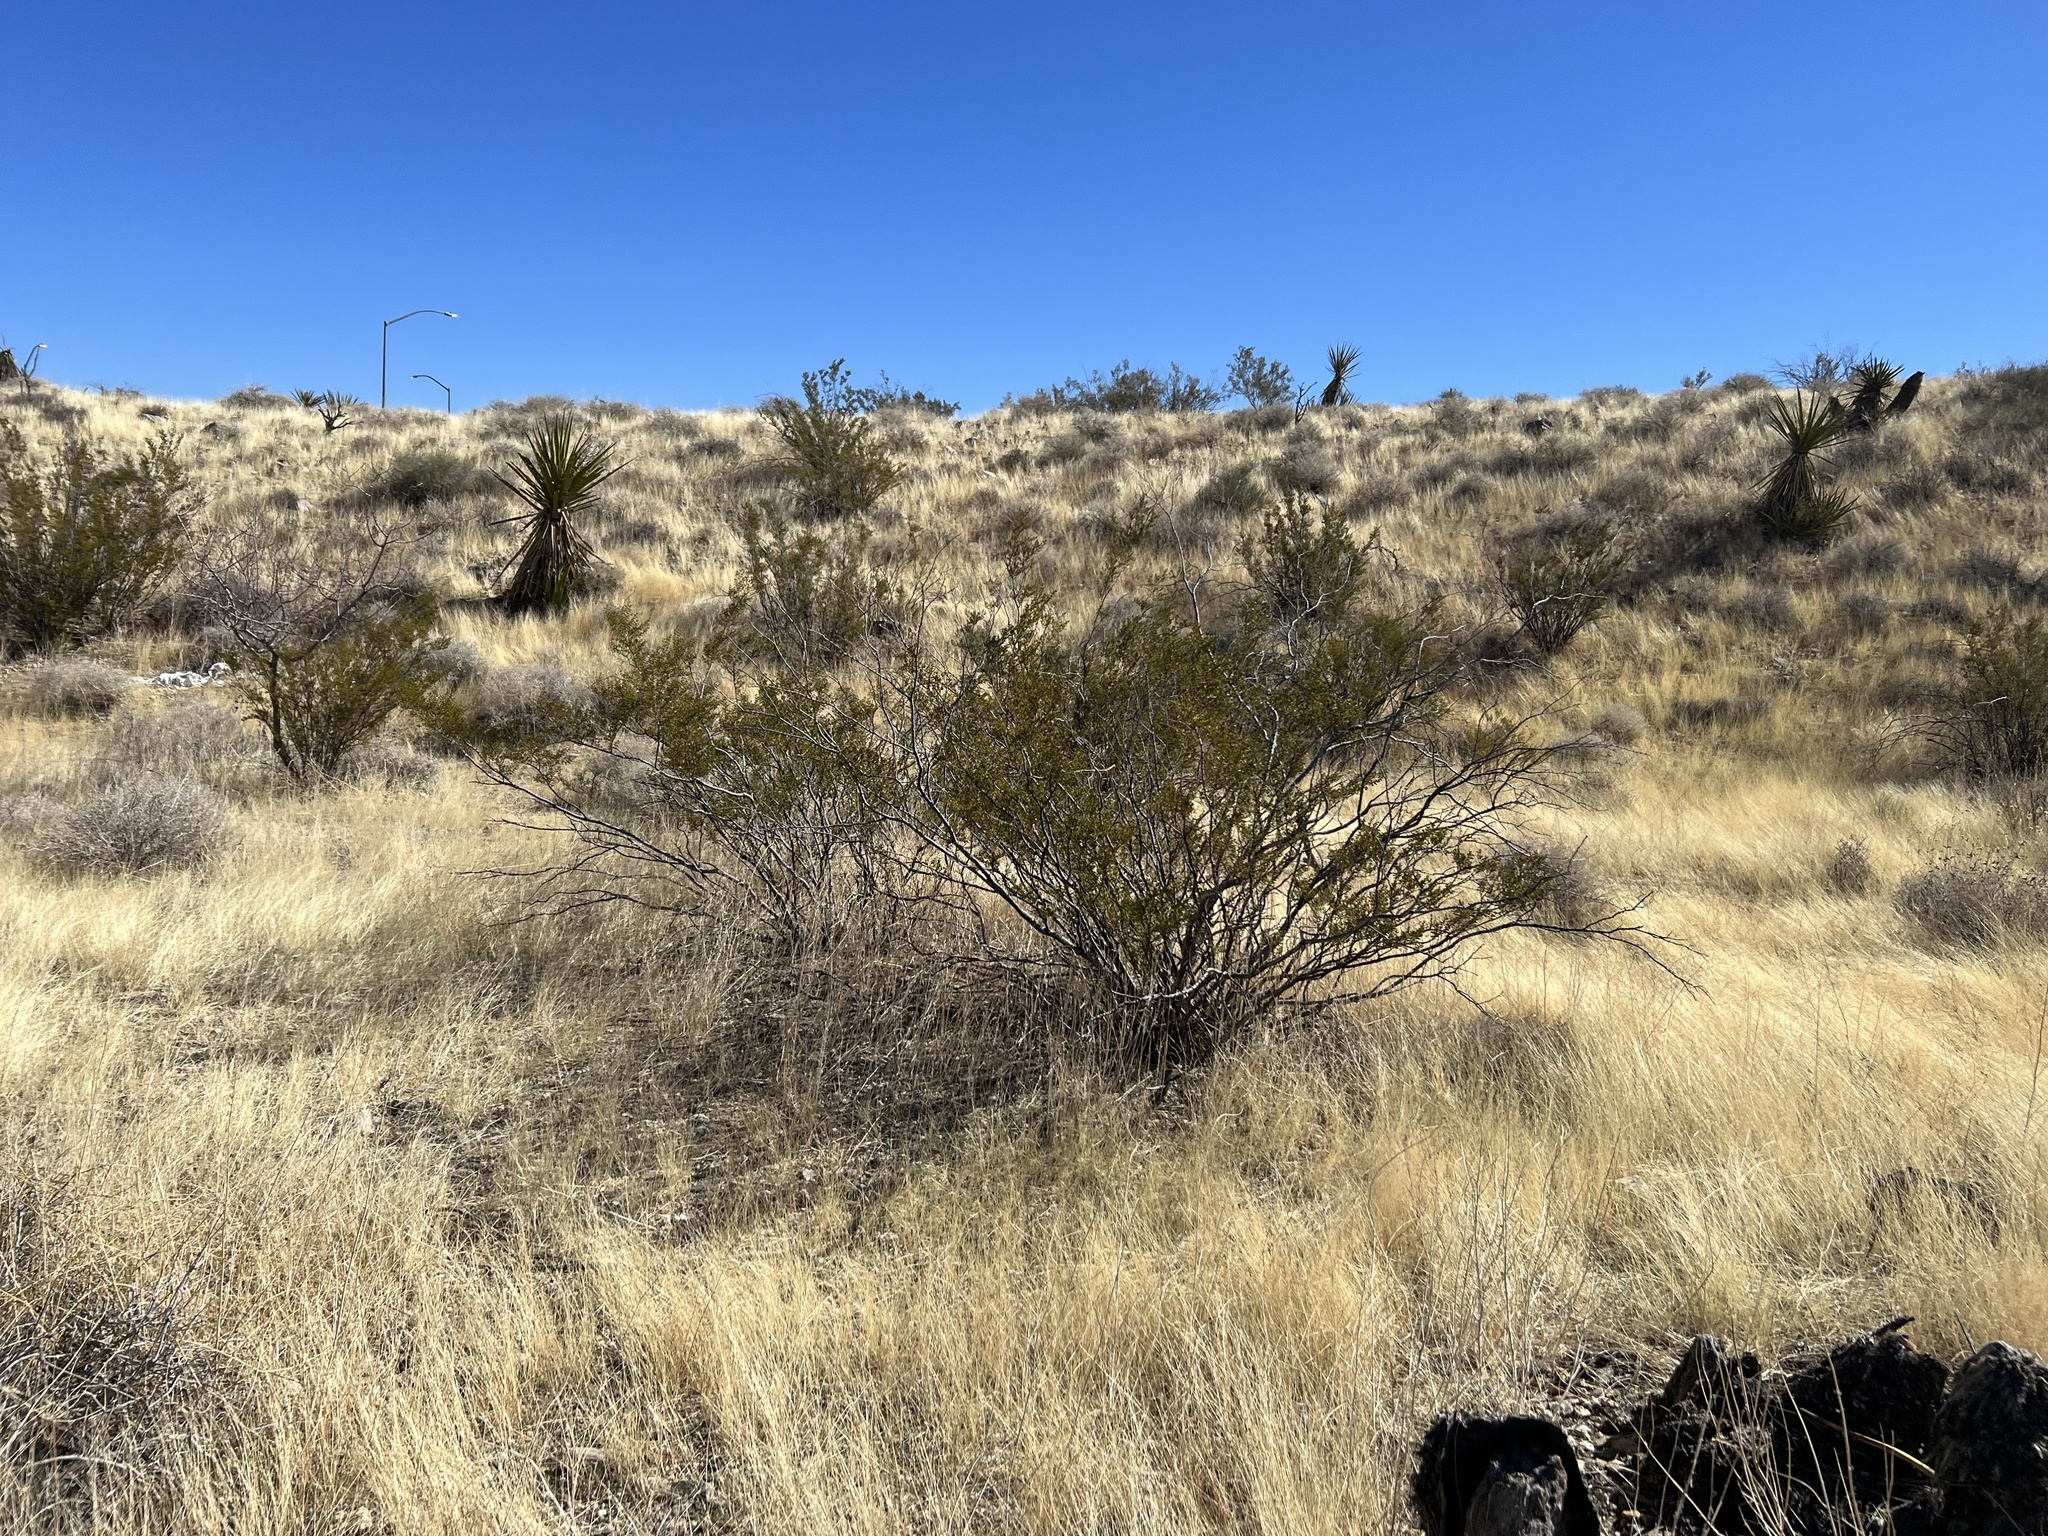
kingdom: Plantae
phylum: Tracheophyta
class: Magnoliopsida
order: Zygophyllales
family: Zygophyllaceae
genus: Larrea
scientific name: Larrea tridentata
